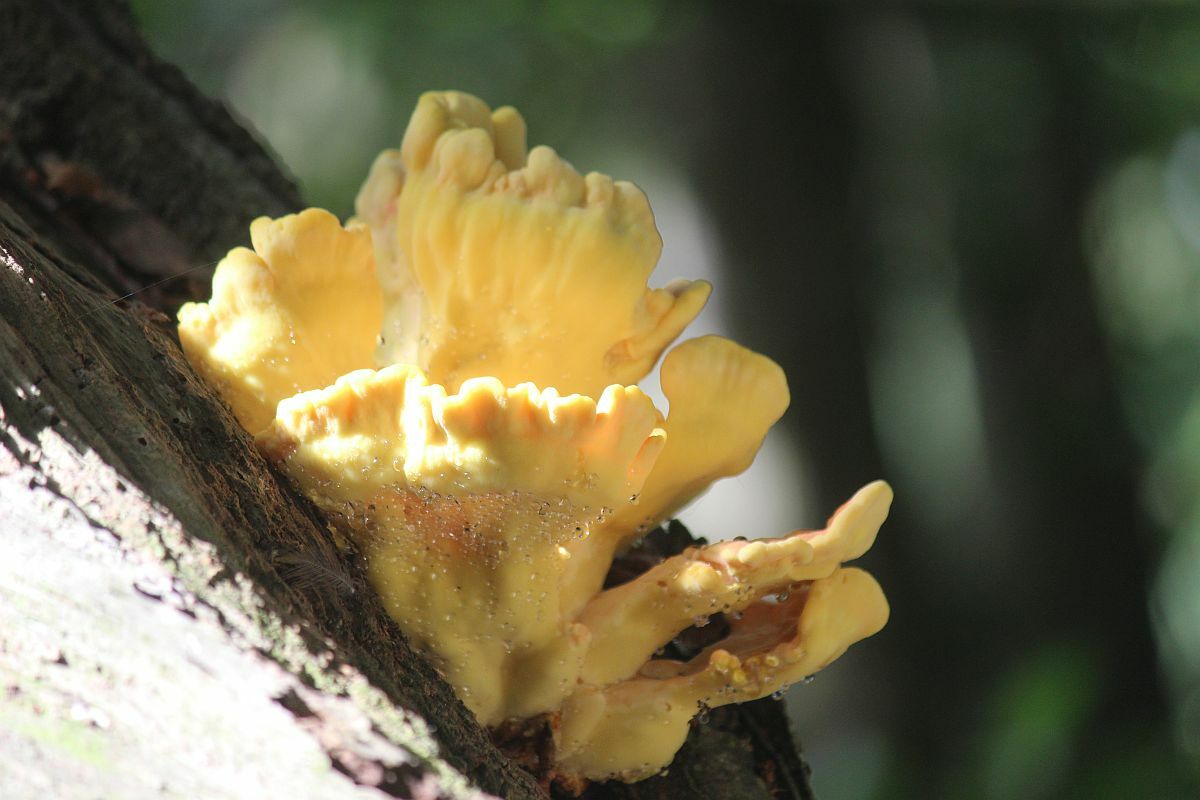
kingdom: Fungi
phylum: Basidiomycota
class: Agaricomycetes
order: Polyporales
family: Laetiporaceae
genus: Laetiporus
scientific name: Laetiporus sulphureus
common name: Chicken of the woods
